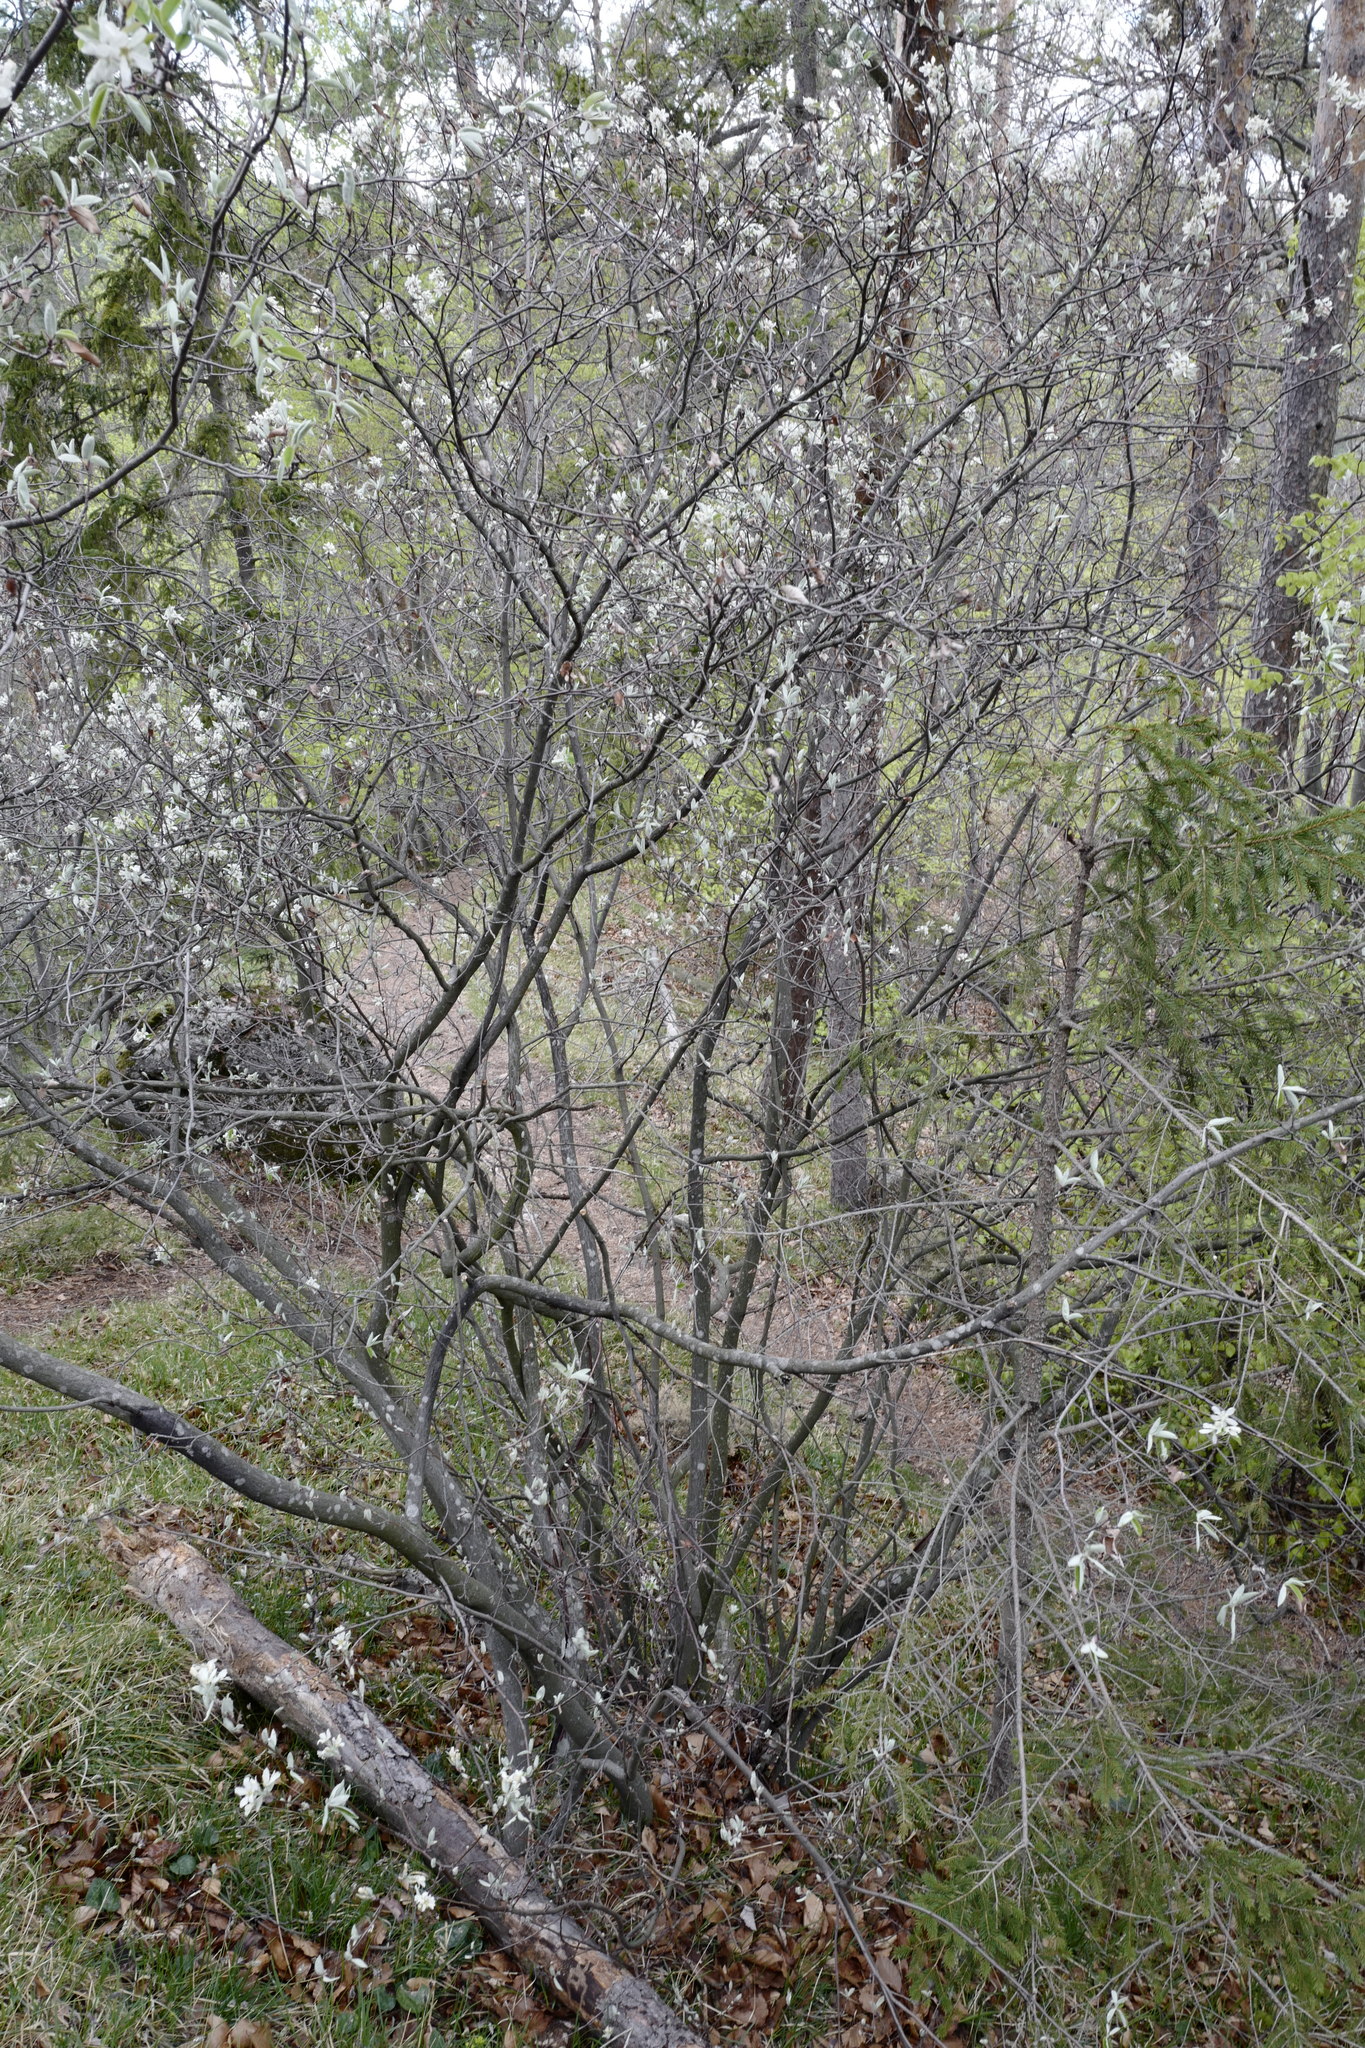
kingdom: Plantae
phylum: Tracheophyta
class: Magnoliopsida
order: Rosales
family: Rosaceae
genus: Amelanchier
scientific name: Amelanchier ovalis
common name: Serviceberry
